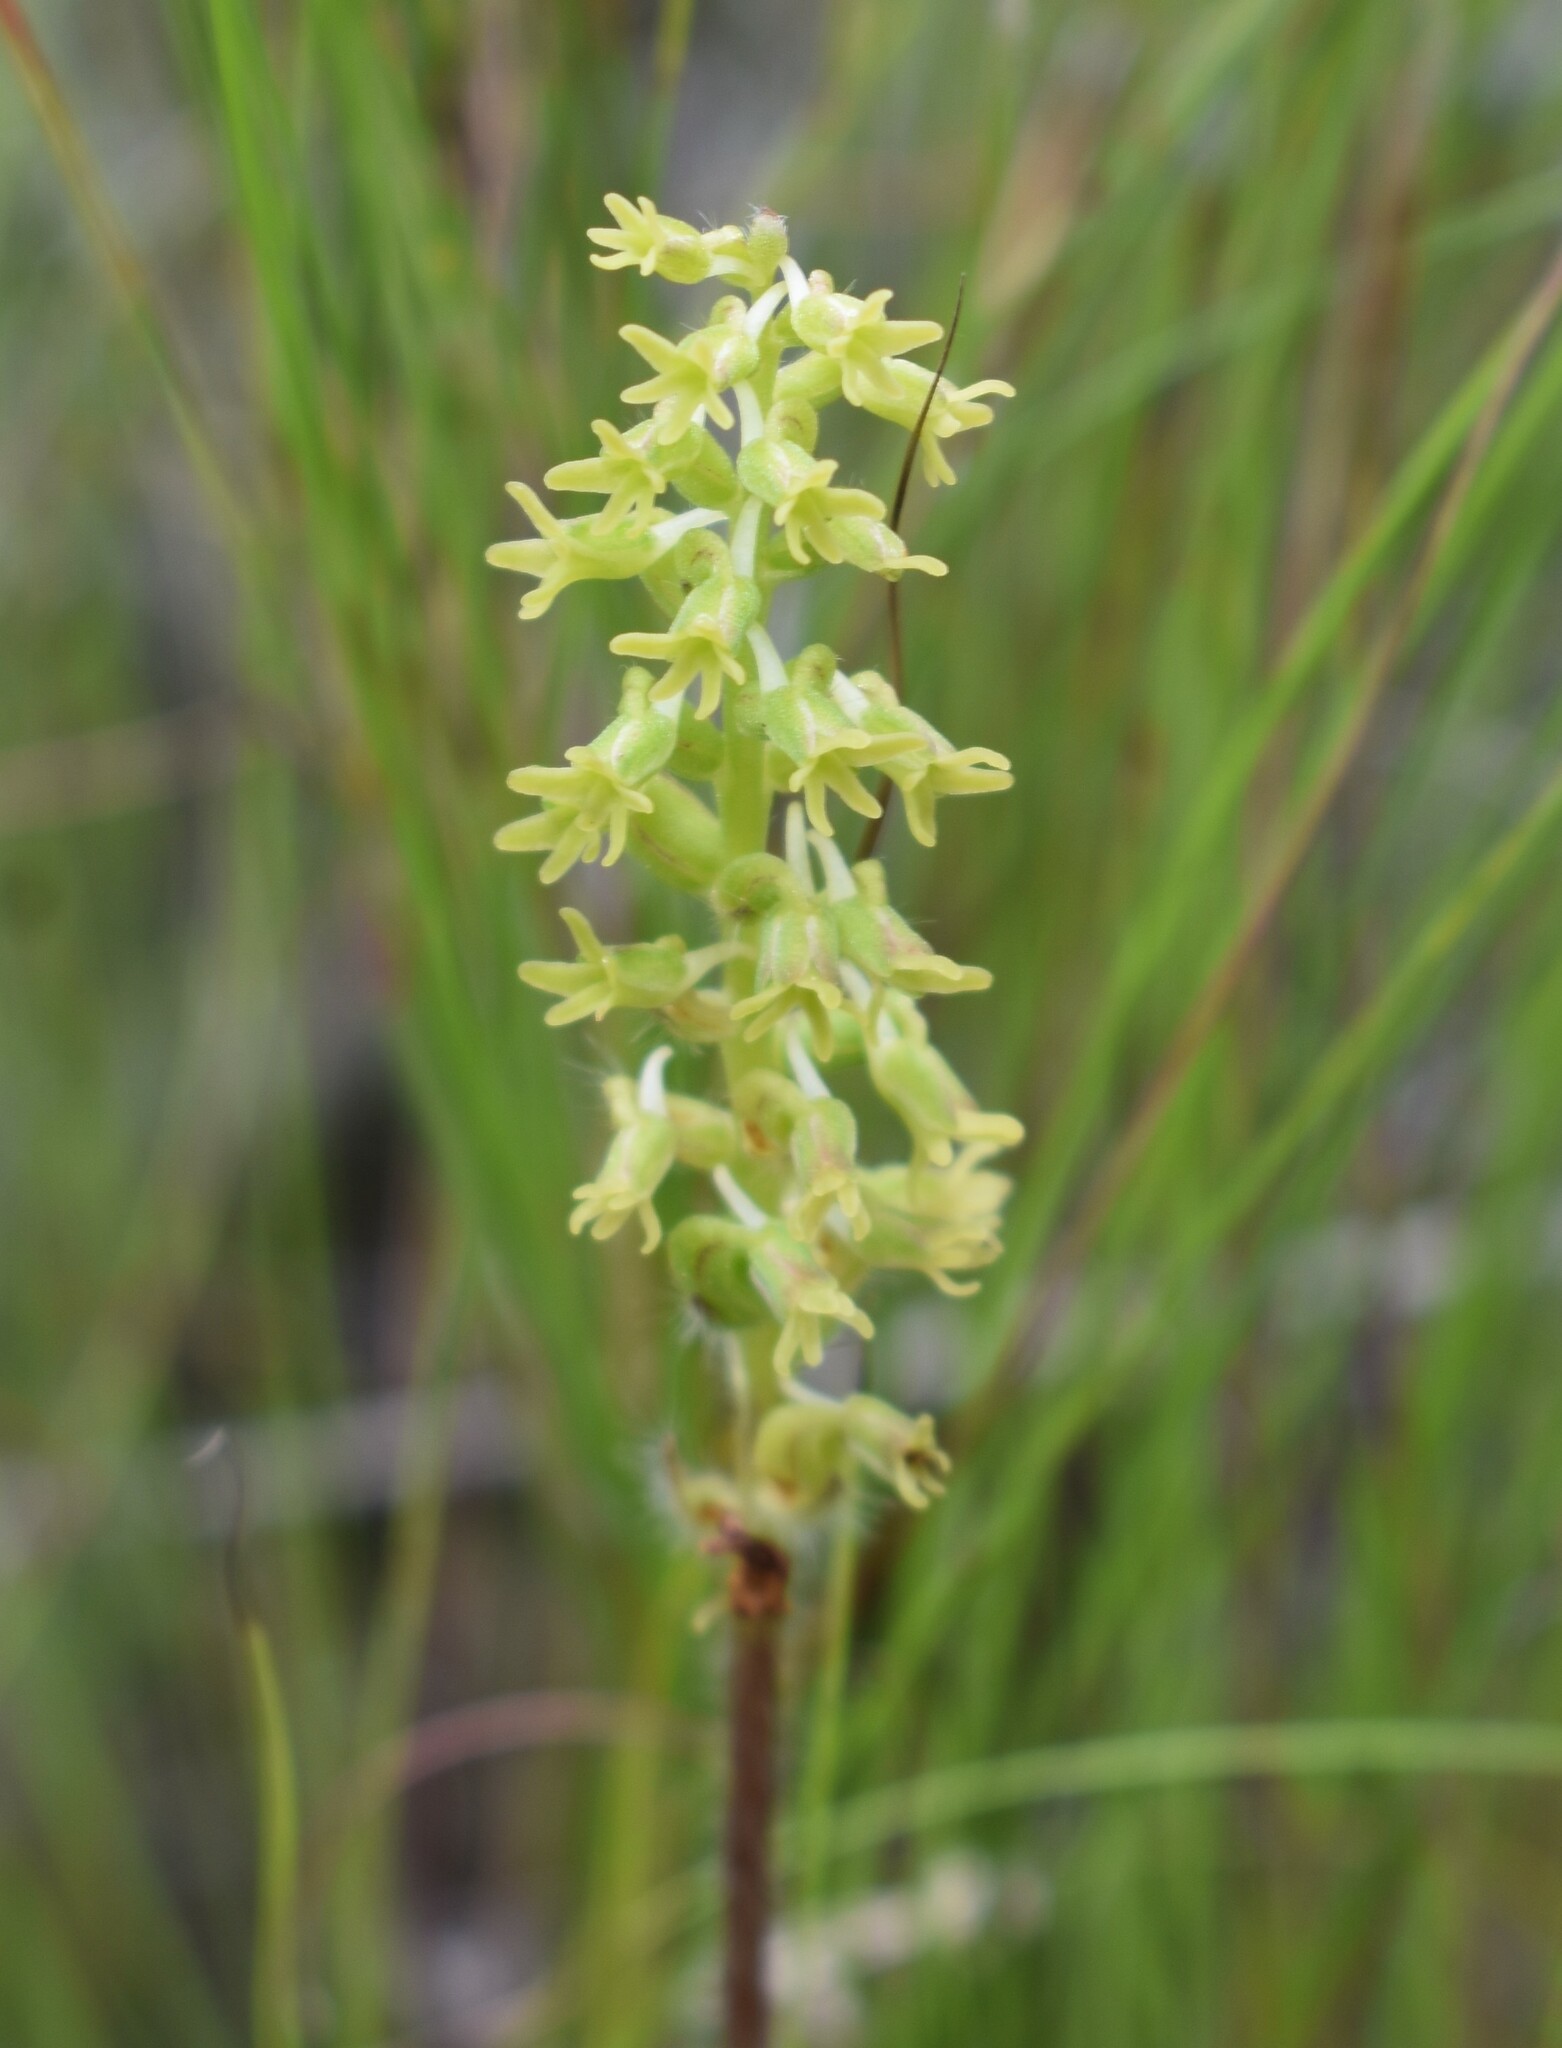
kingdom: Plantae
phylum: Tracheophyta
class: Liliopsida
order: Asparagales
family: Orchidaceae
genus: Holothrix
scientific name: Holothrix villosa
